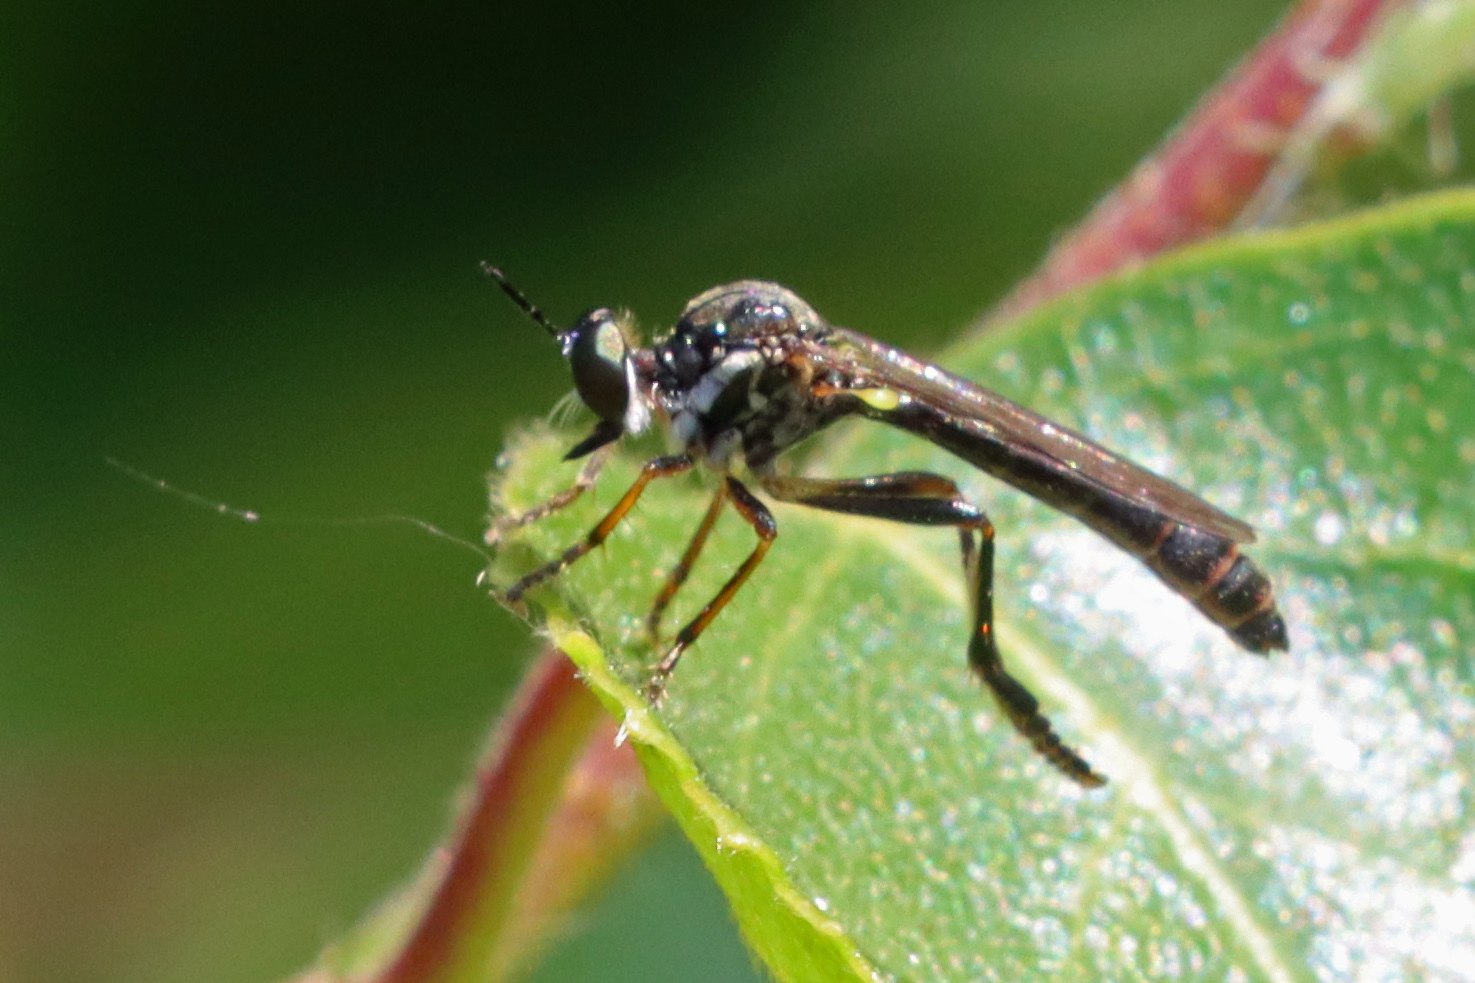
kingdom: Animalia
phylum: Arthropoda
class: Insecta
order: Diptera
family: Asilidae
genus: Dioctria
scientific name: Dioctria hyalipennis
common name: Stripe-legged robberfly
